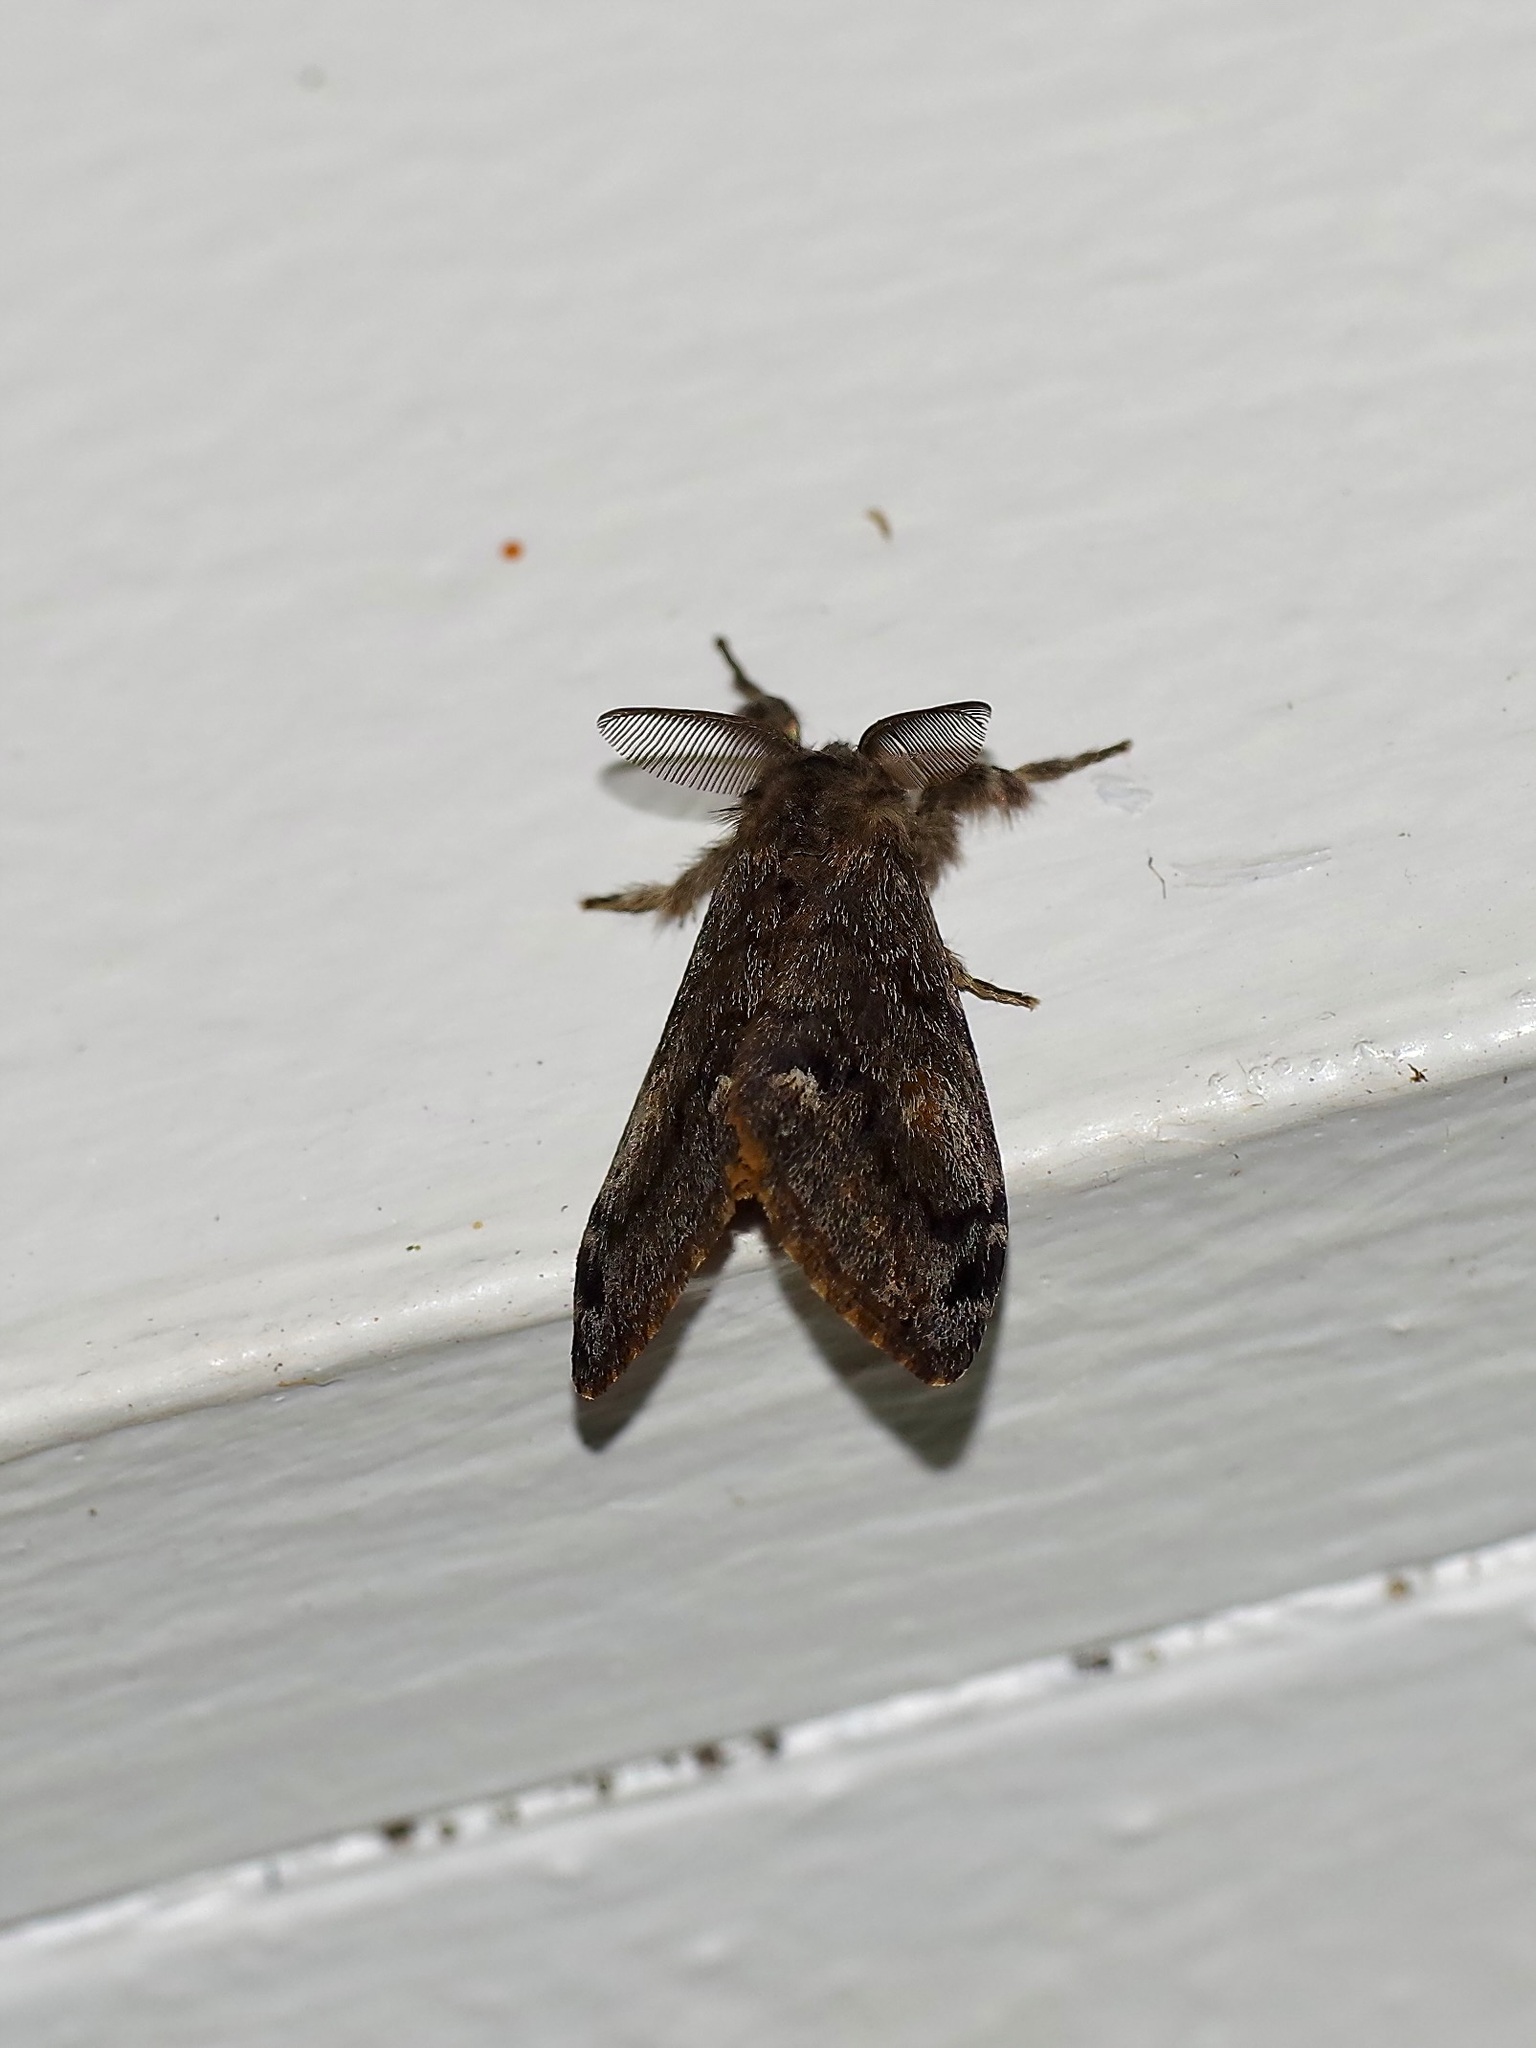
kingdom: Animalia
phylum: Arthropoda
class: Insecta
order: Lepidoptera
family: Erebidae
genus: Orgyia
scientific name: Orgyia pseudotsugata
